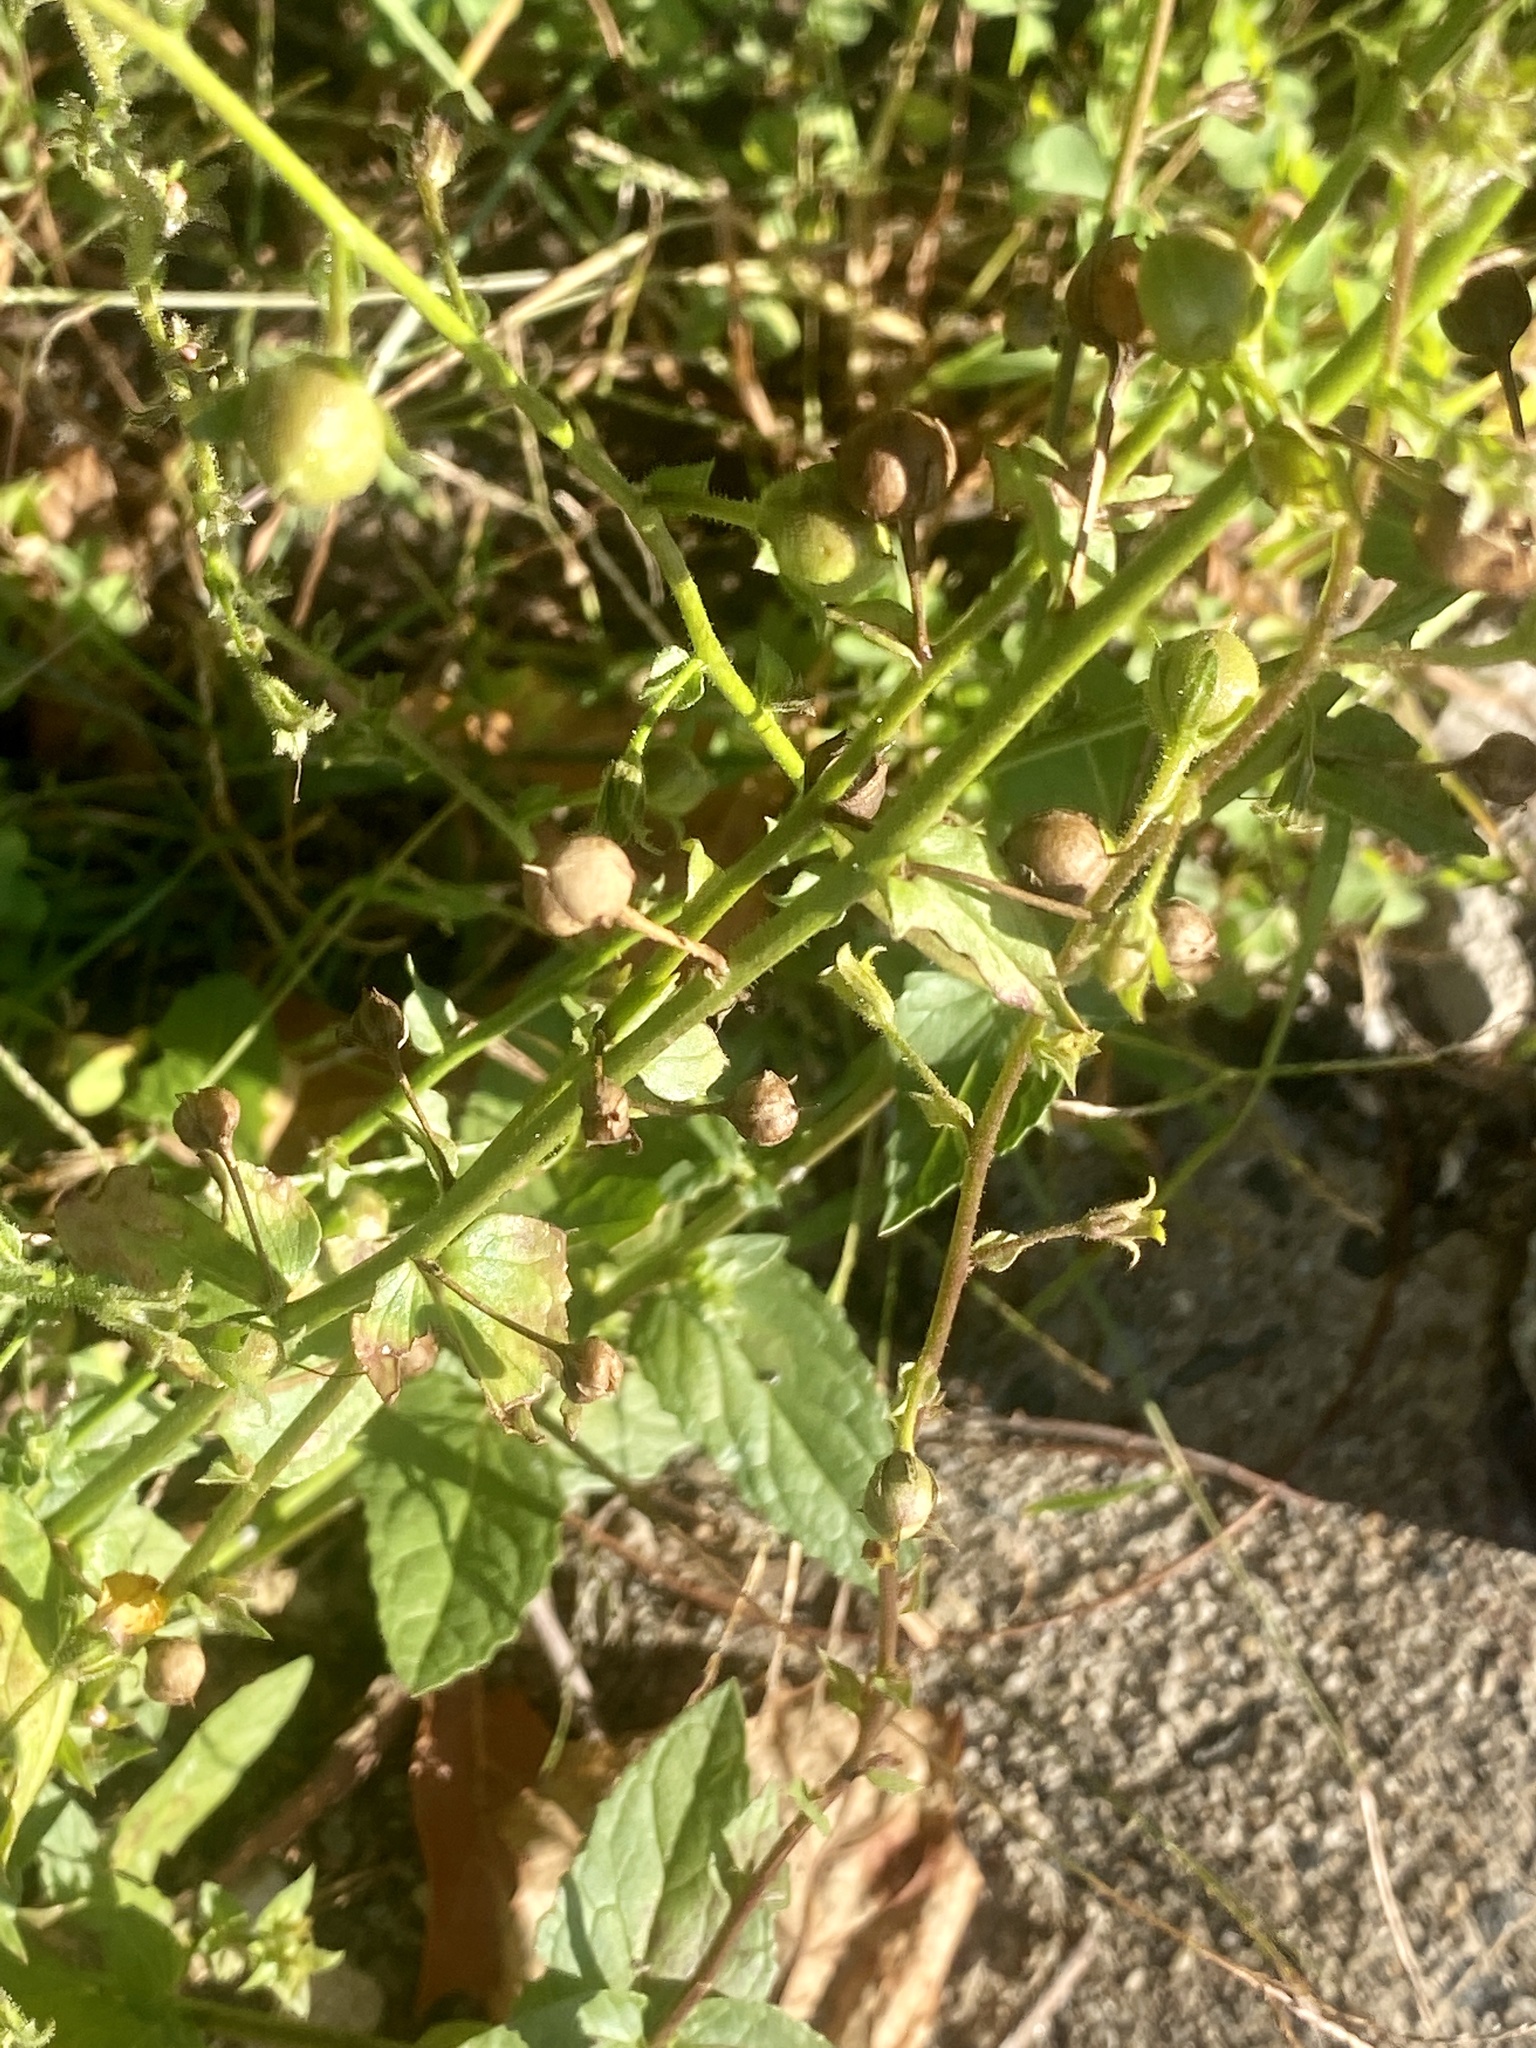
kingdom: Plantae
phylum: Tracheophyta
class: Magnoliopsida
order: Lamiales
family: Scrophulariaceae
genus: Verbascum
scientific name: Verbascum blattaria
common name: Moth mullein
